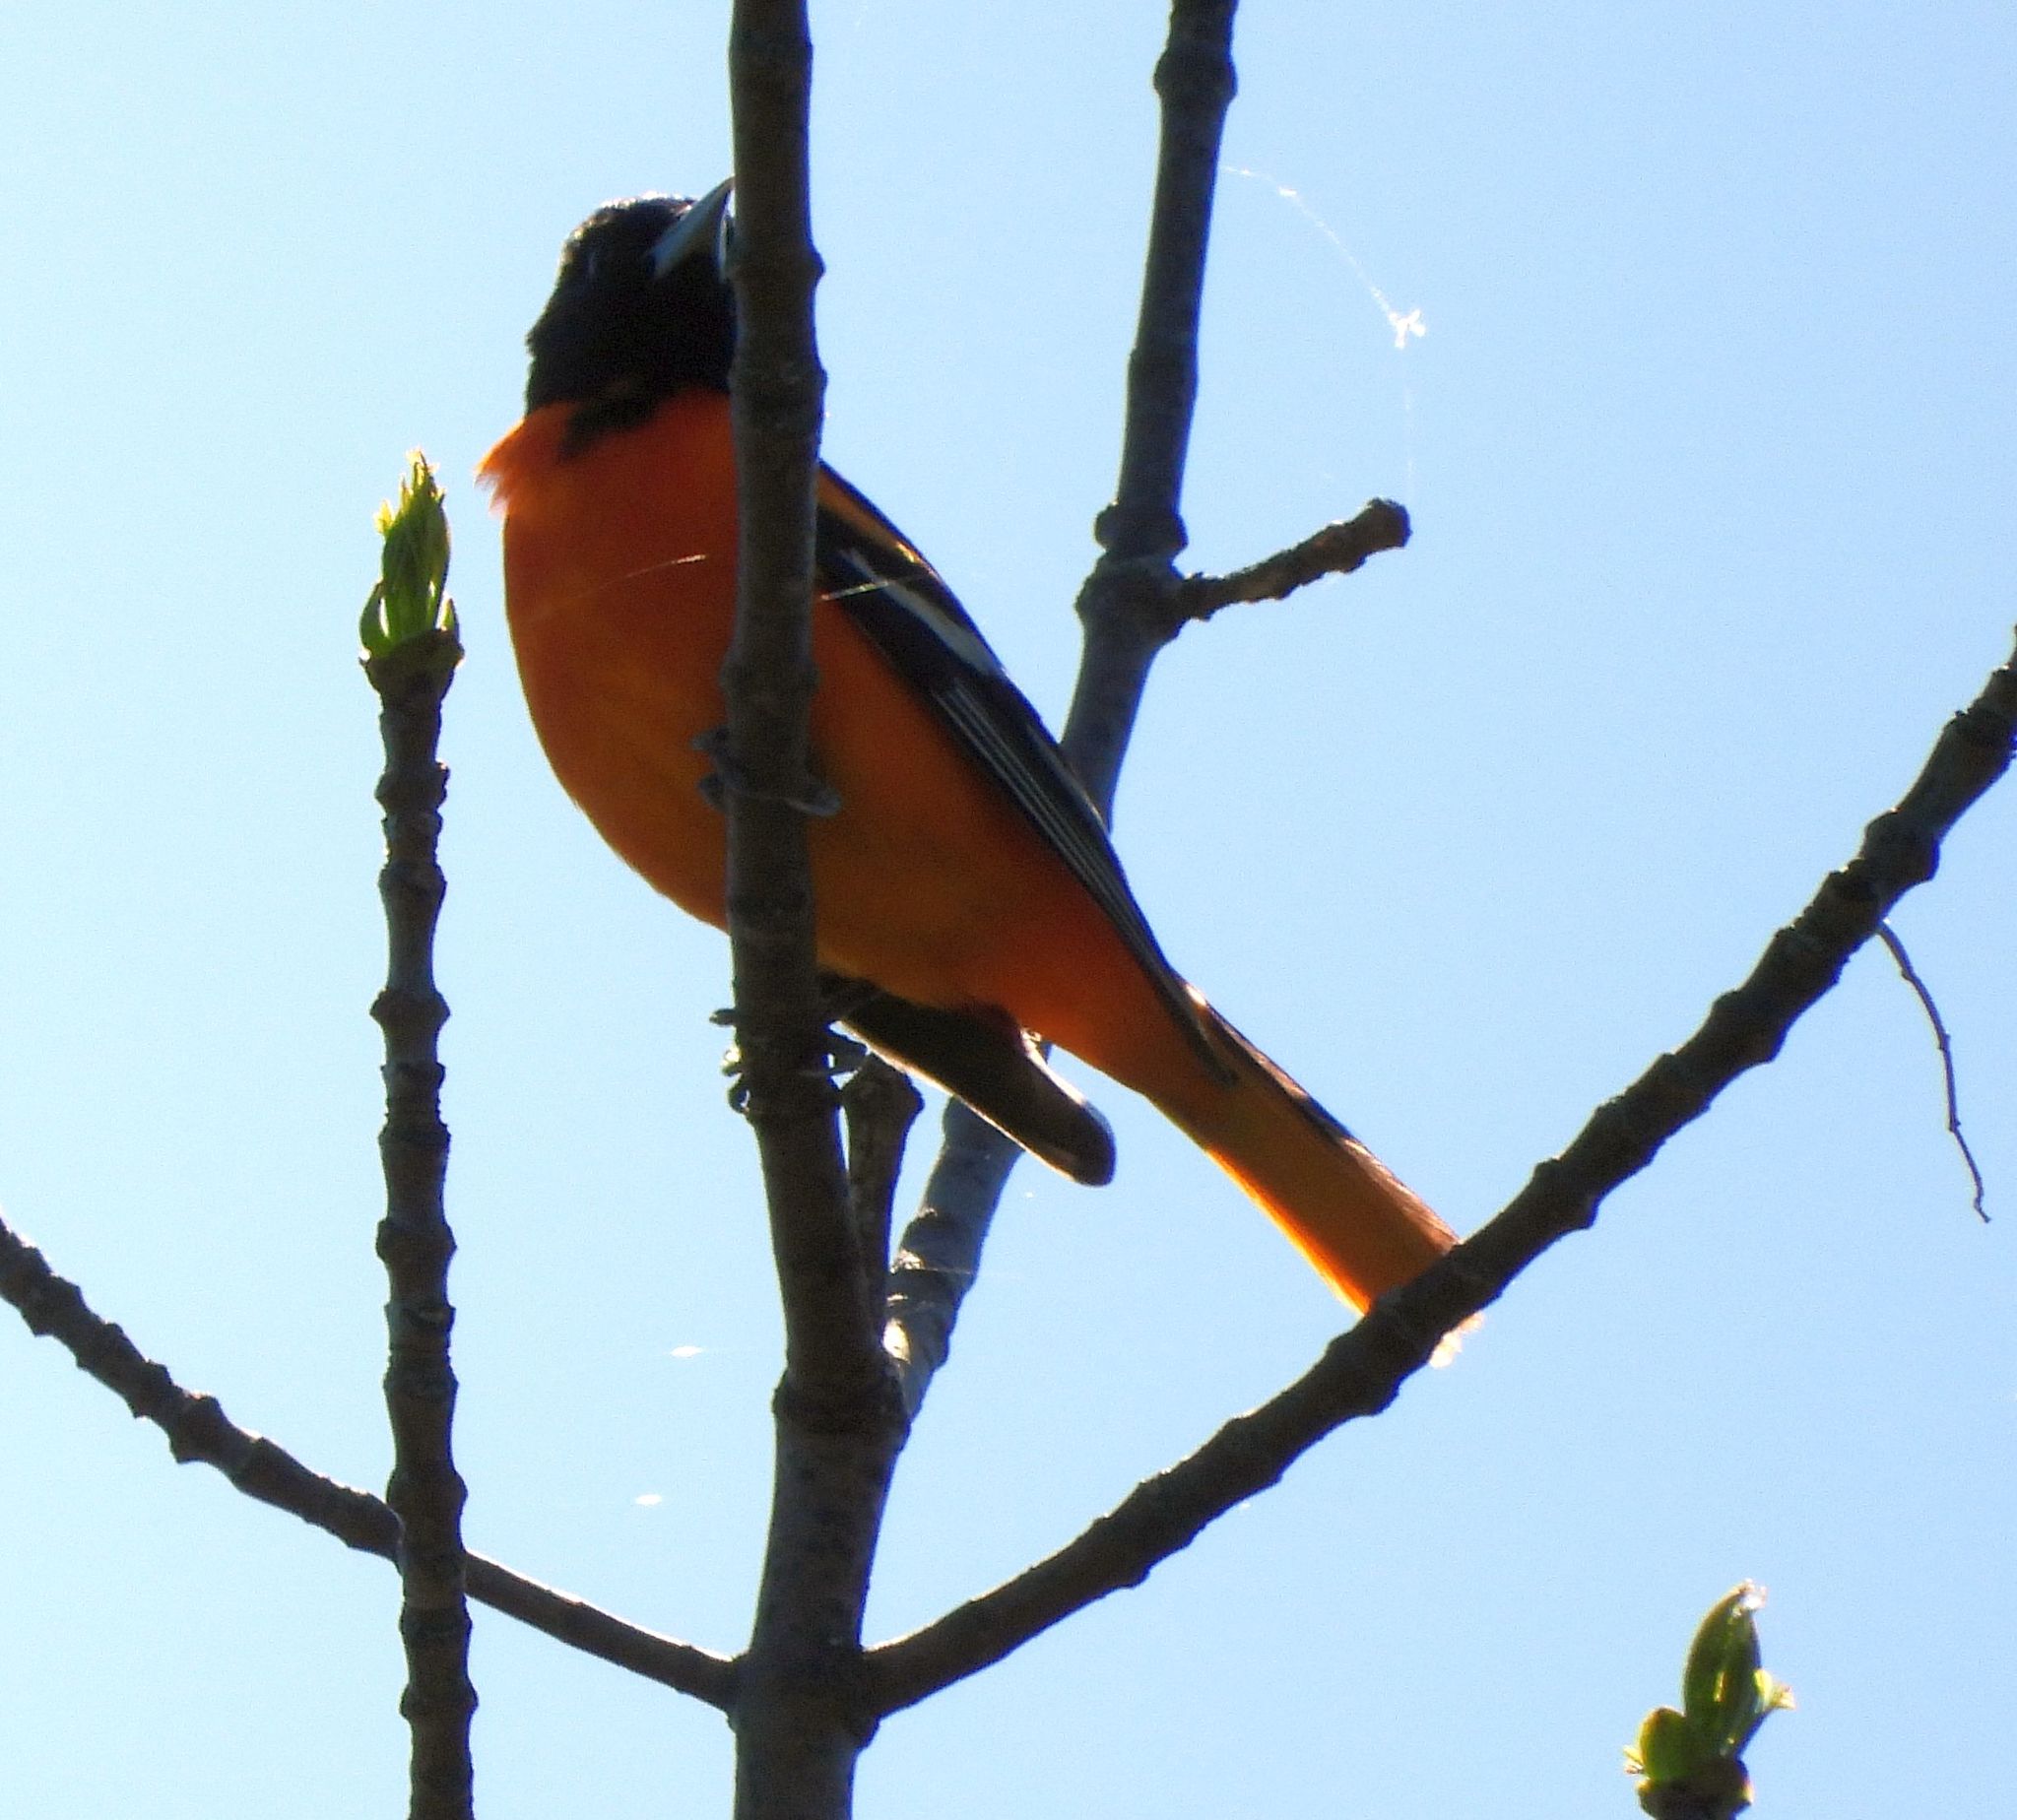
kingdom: Animalia
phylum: Chordata
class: Aves
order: Passeriformes
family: Icteridae
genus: Icterus
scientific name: Icterus galbula
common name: Baltimore oriole
